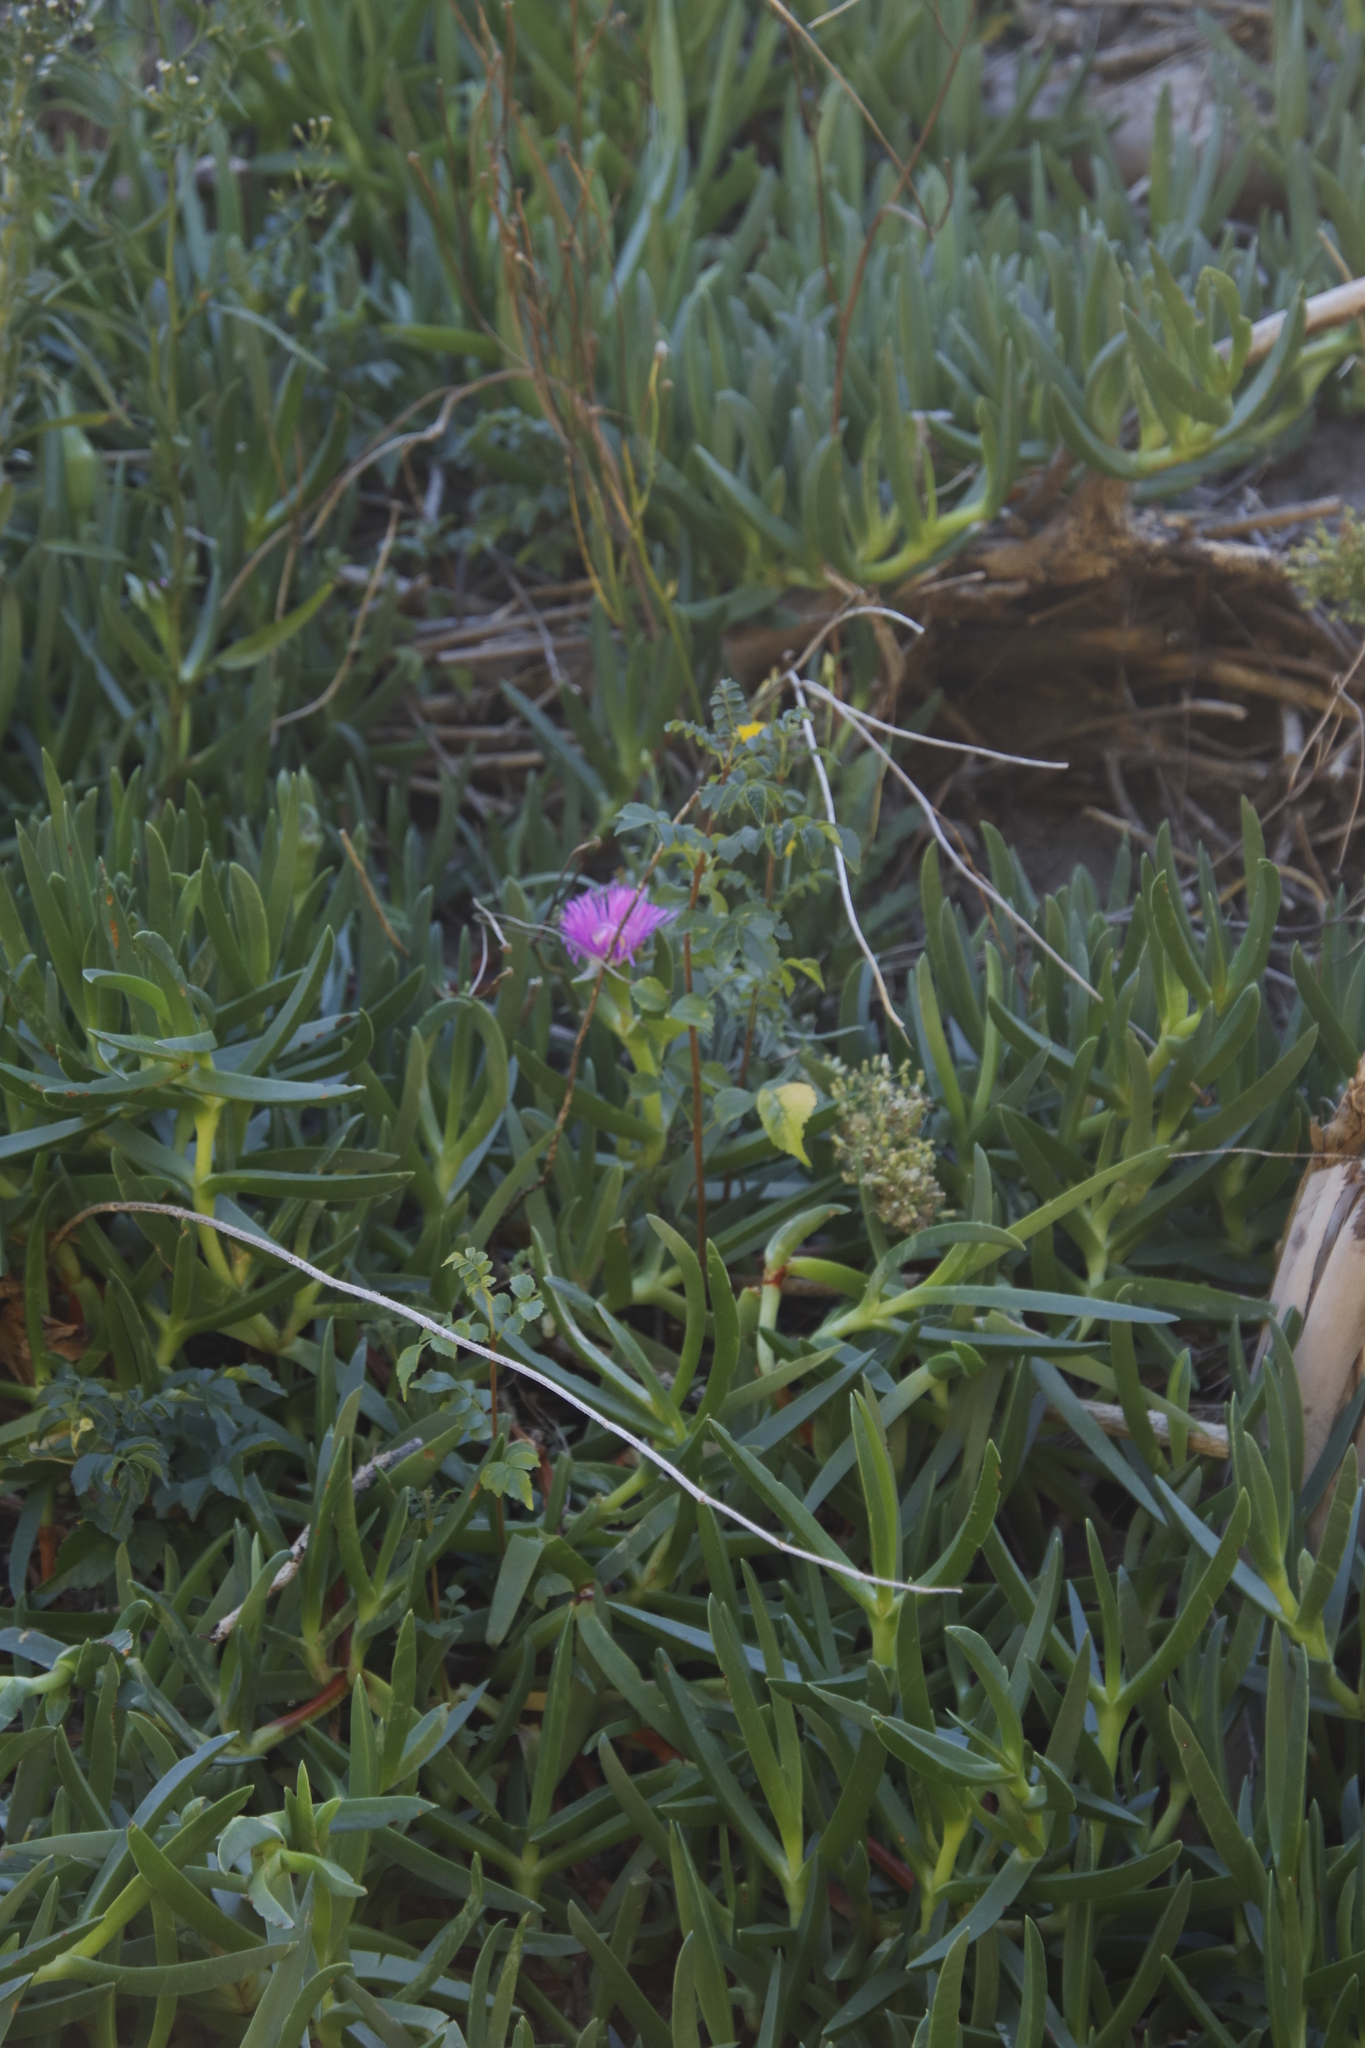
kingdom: Plantae
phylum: Tracheophyta
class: Magnoliopsida
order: Caryophyllales
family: Aizoaceae
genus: Carpobrotus
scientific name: Carpobrotus edulis
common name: Hottentot-fig
